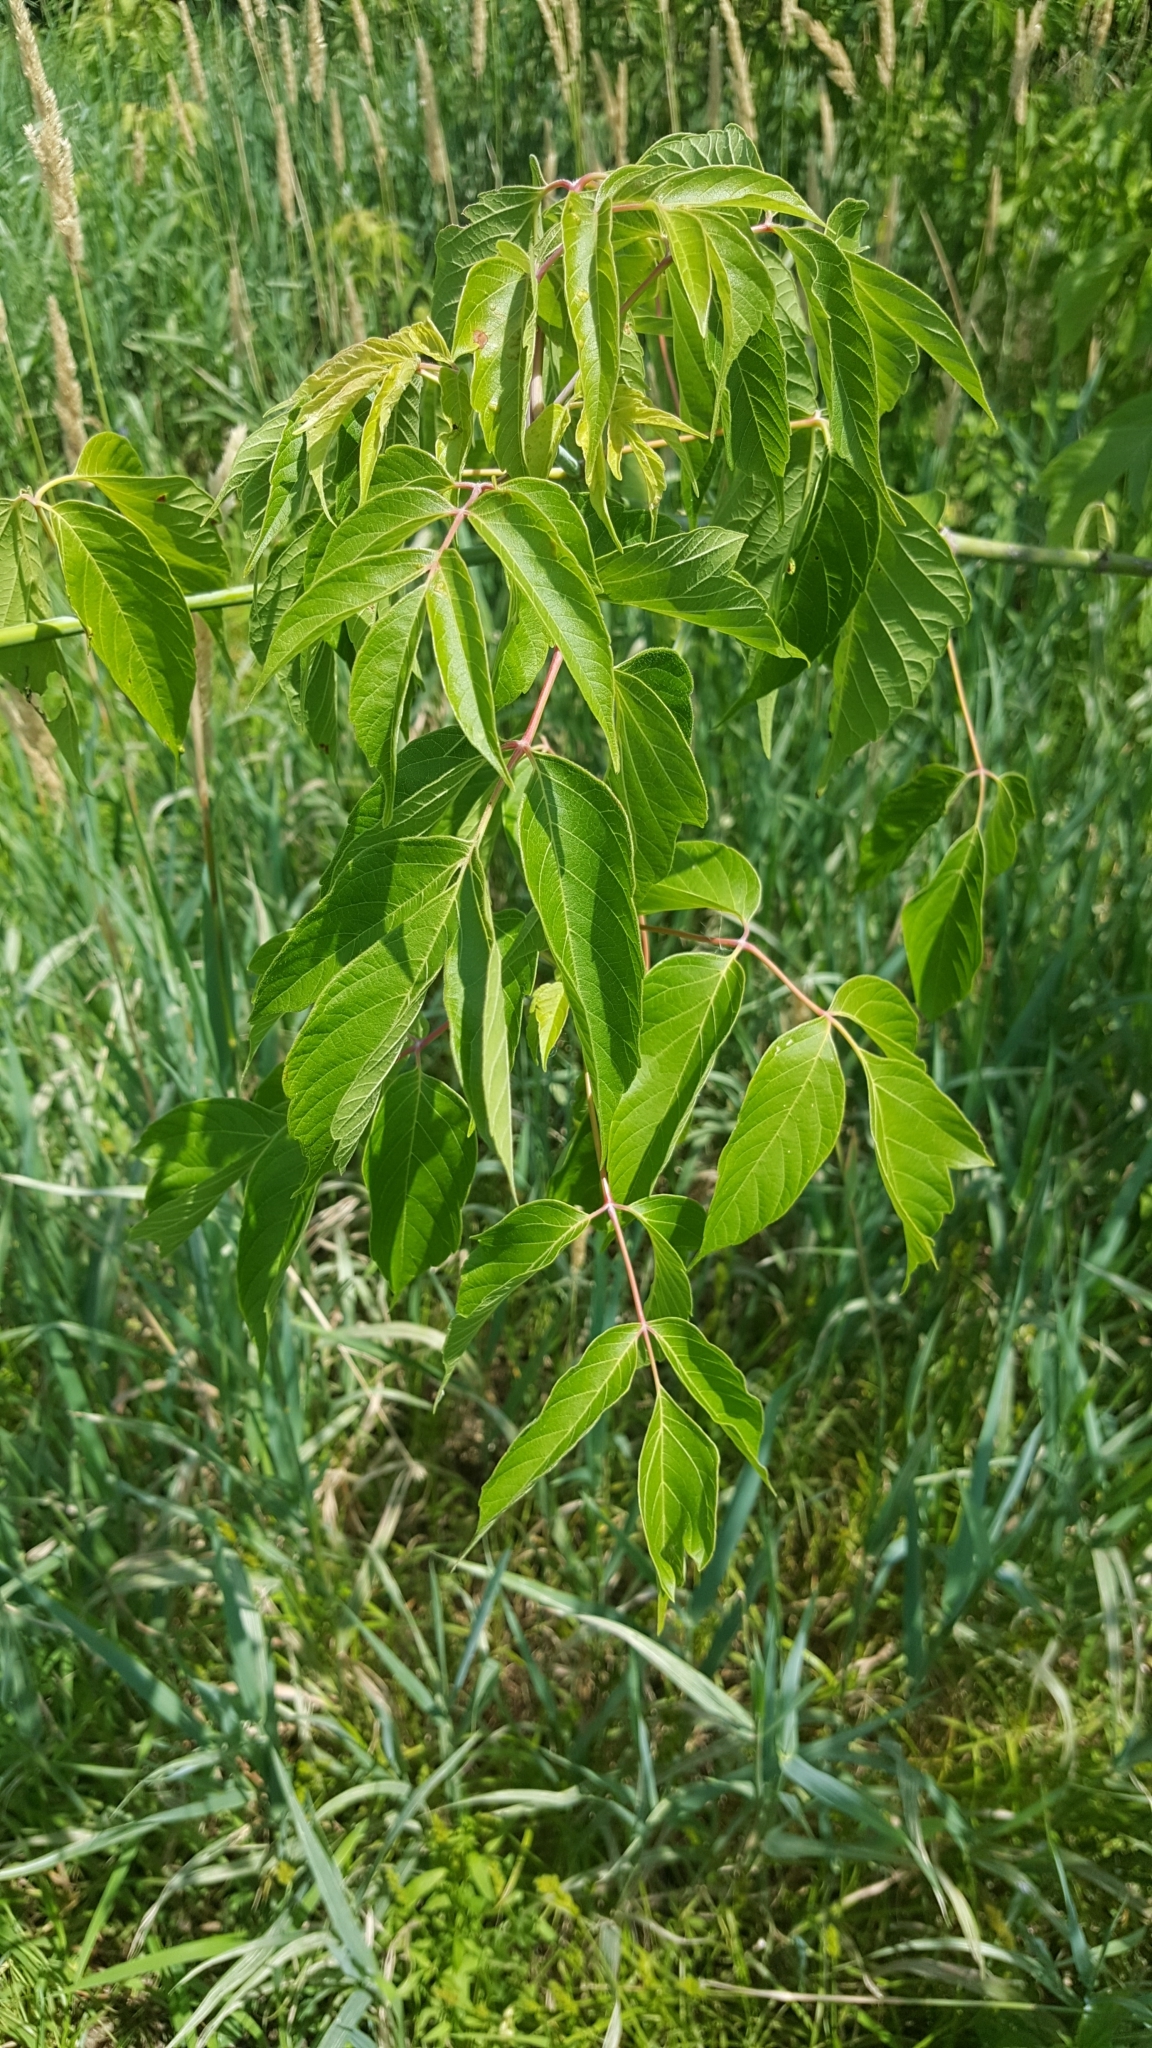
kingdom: Plantae
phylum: Tracheophyta
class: Magnoliopsida
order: Sapindales
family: Sapindaceae
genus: Acer
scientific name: Acer negundo
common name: Ashleaf maple
